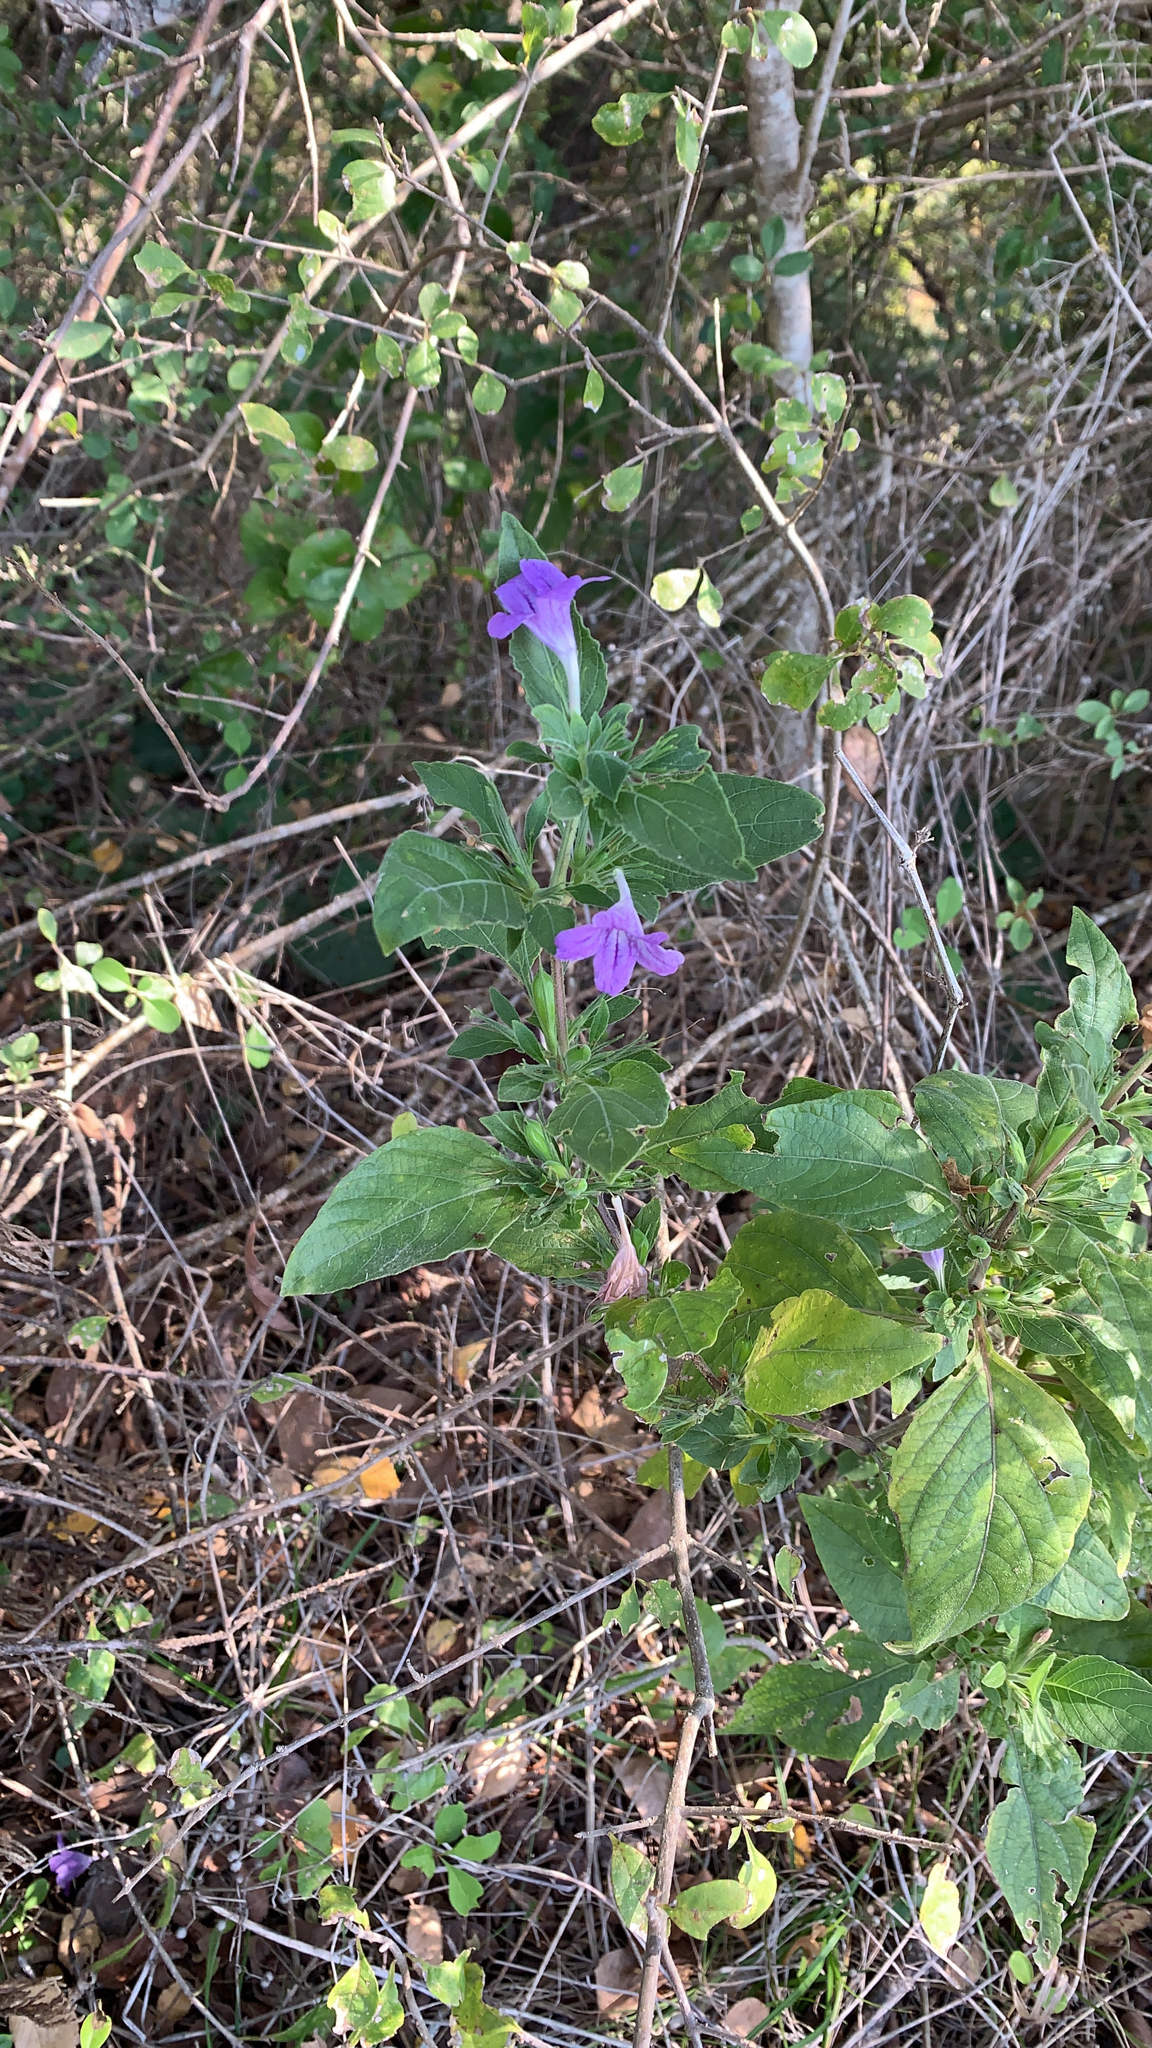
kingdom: Plantae
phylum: Tracheophyta
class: Magnoliopsida
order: Lamiales
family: Acanthaceae
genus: Ruellia
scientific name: Ruellia drummondiana
